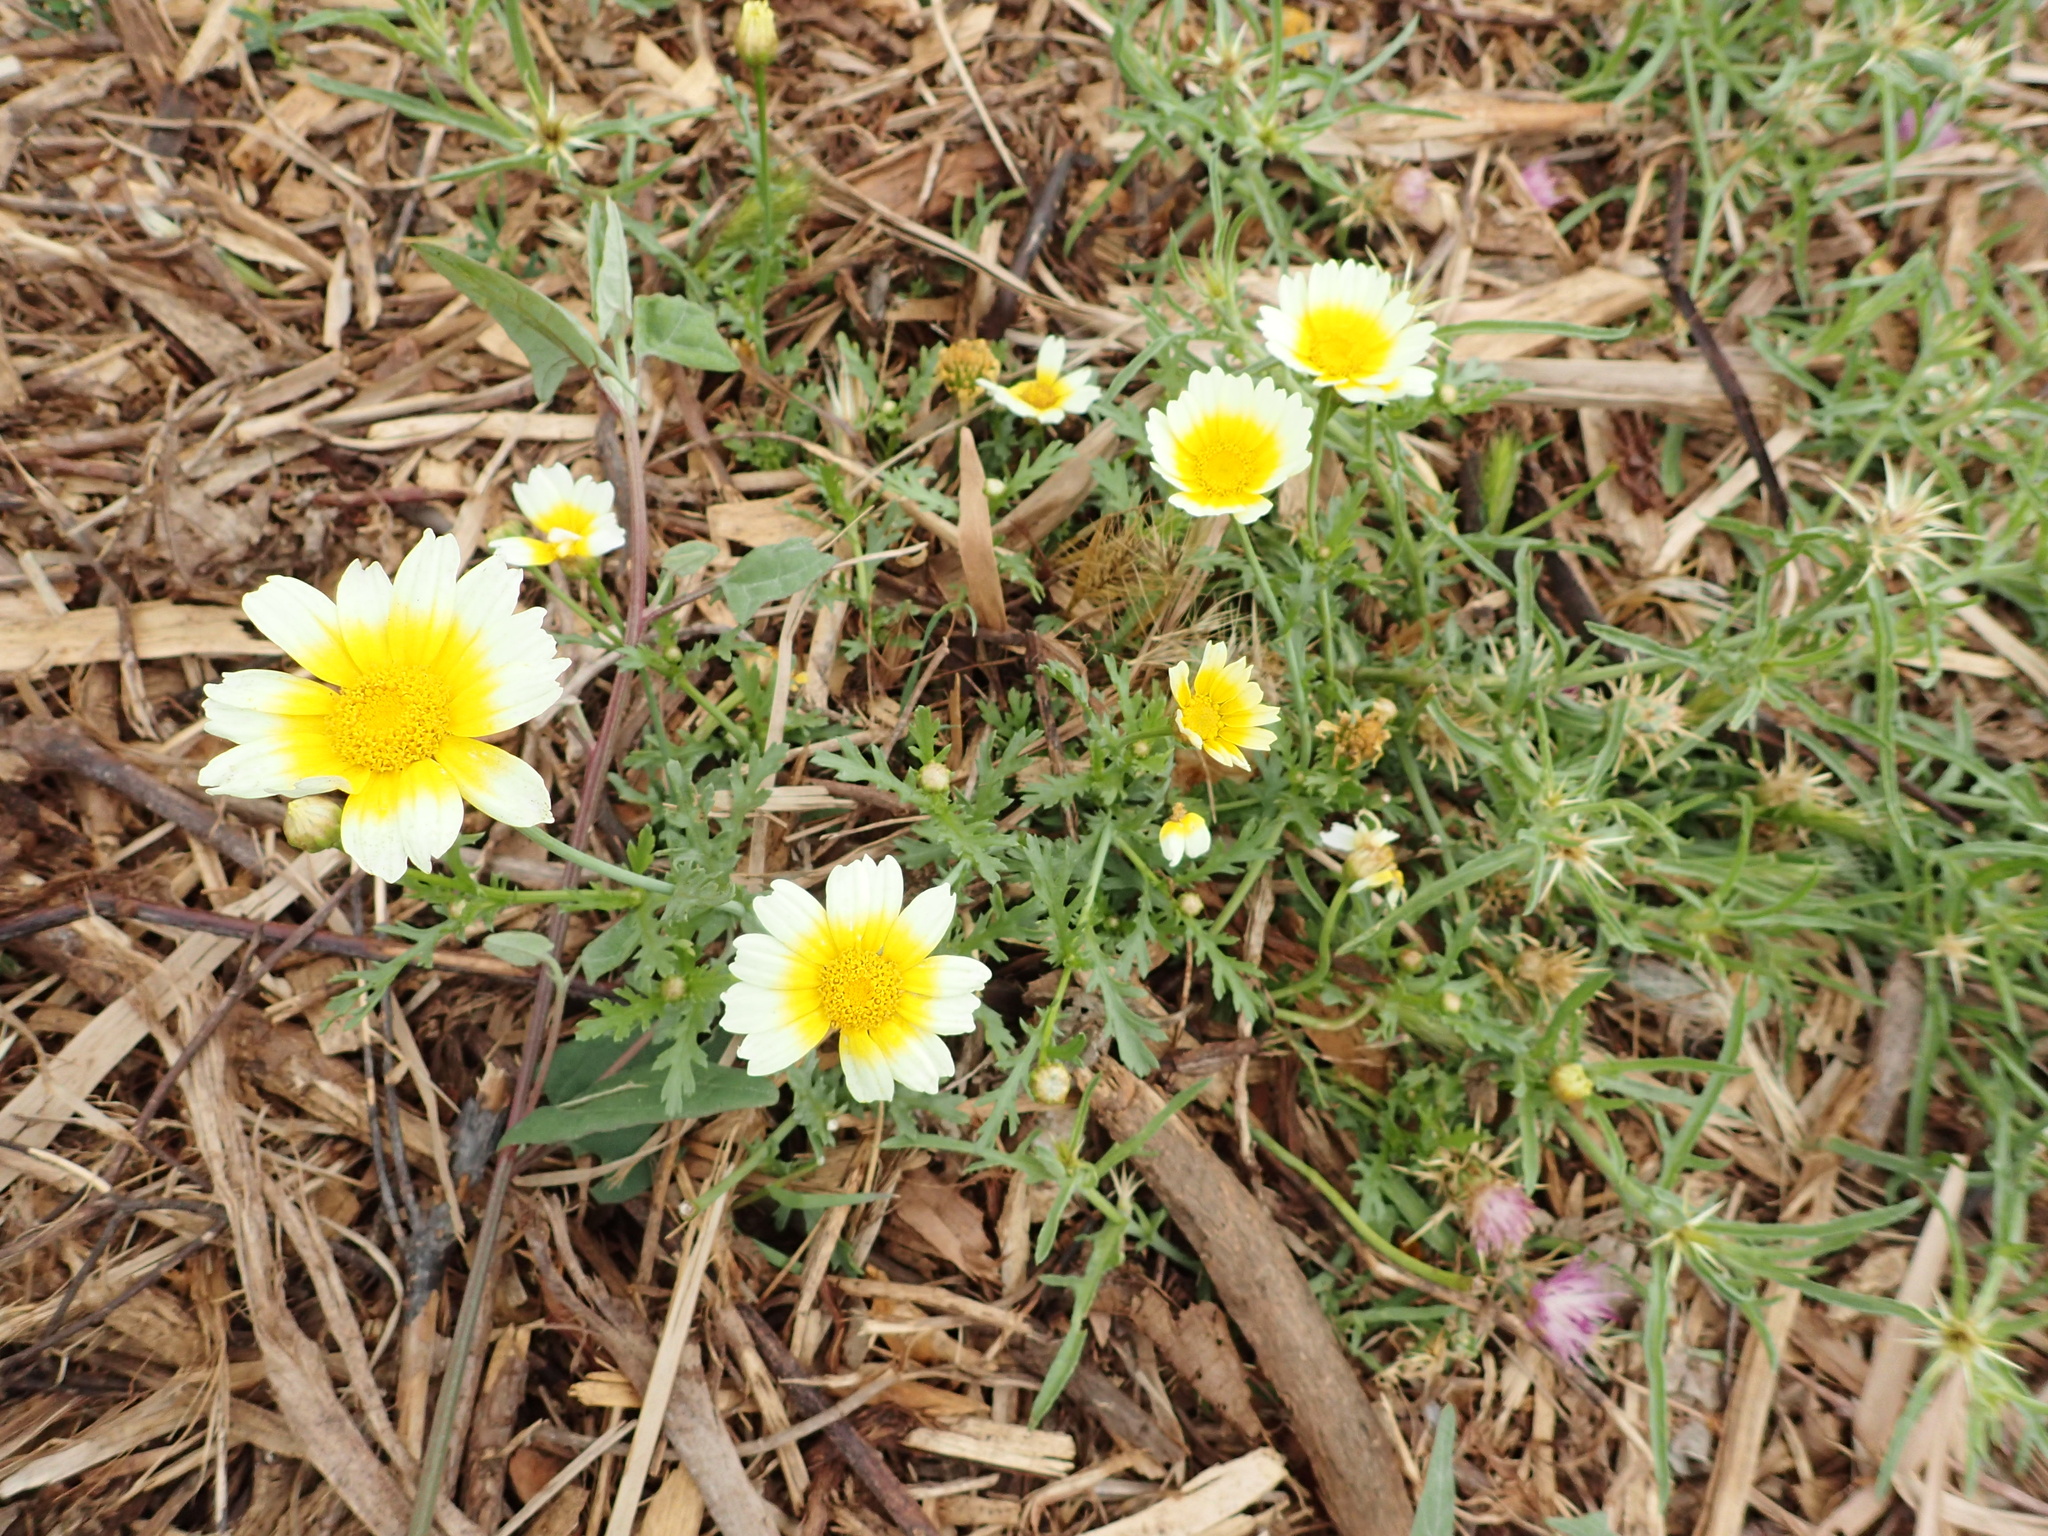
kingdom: Plantae
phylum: Tracheophyta
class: Magnoliopsida
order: Asterales
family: Asteraceae
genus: Glebionis
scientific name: Glebionis coronaria
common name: Crowndaisy
